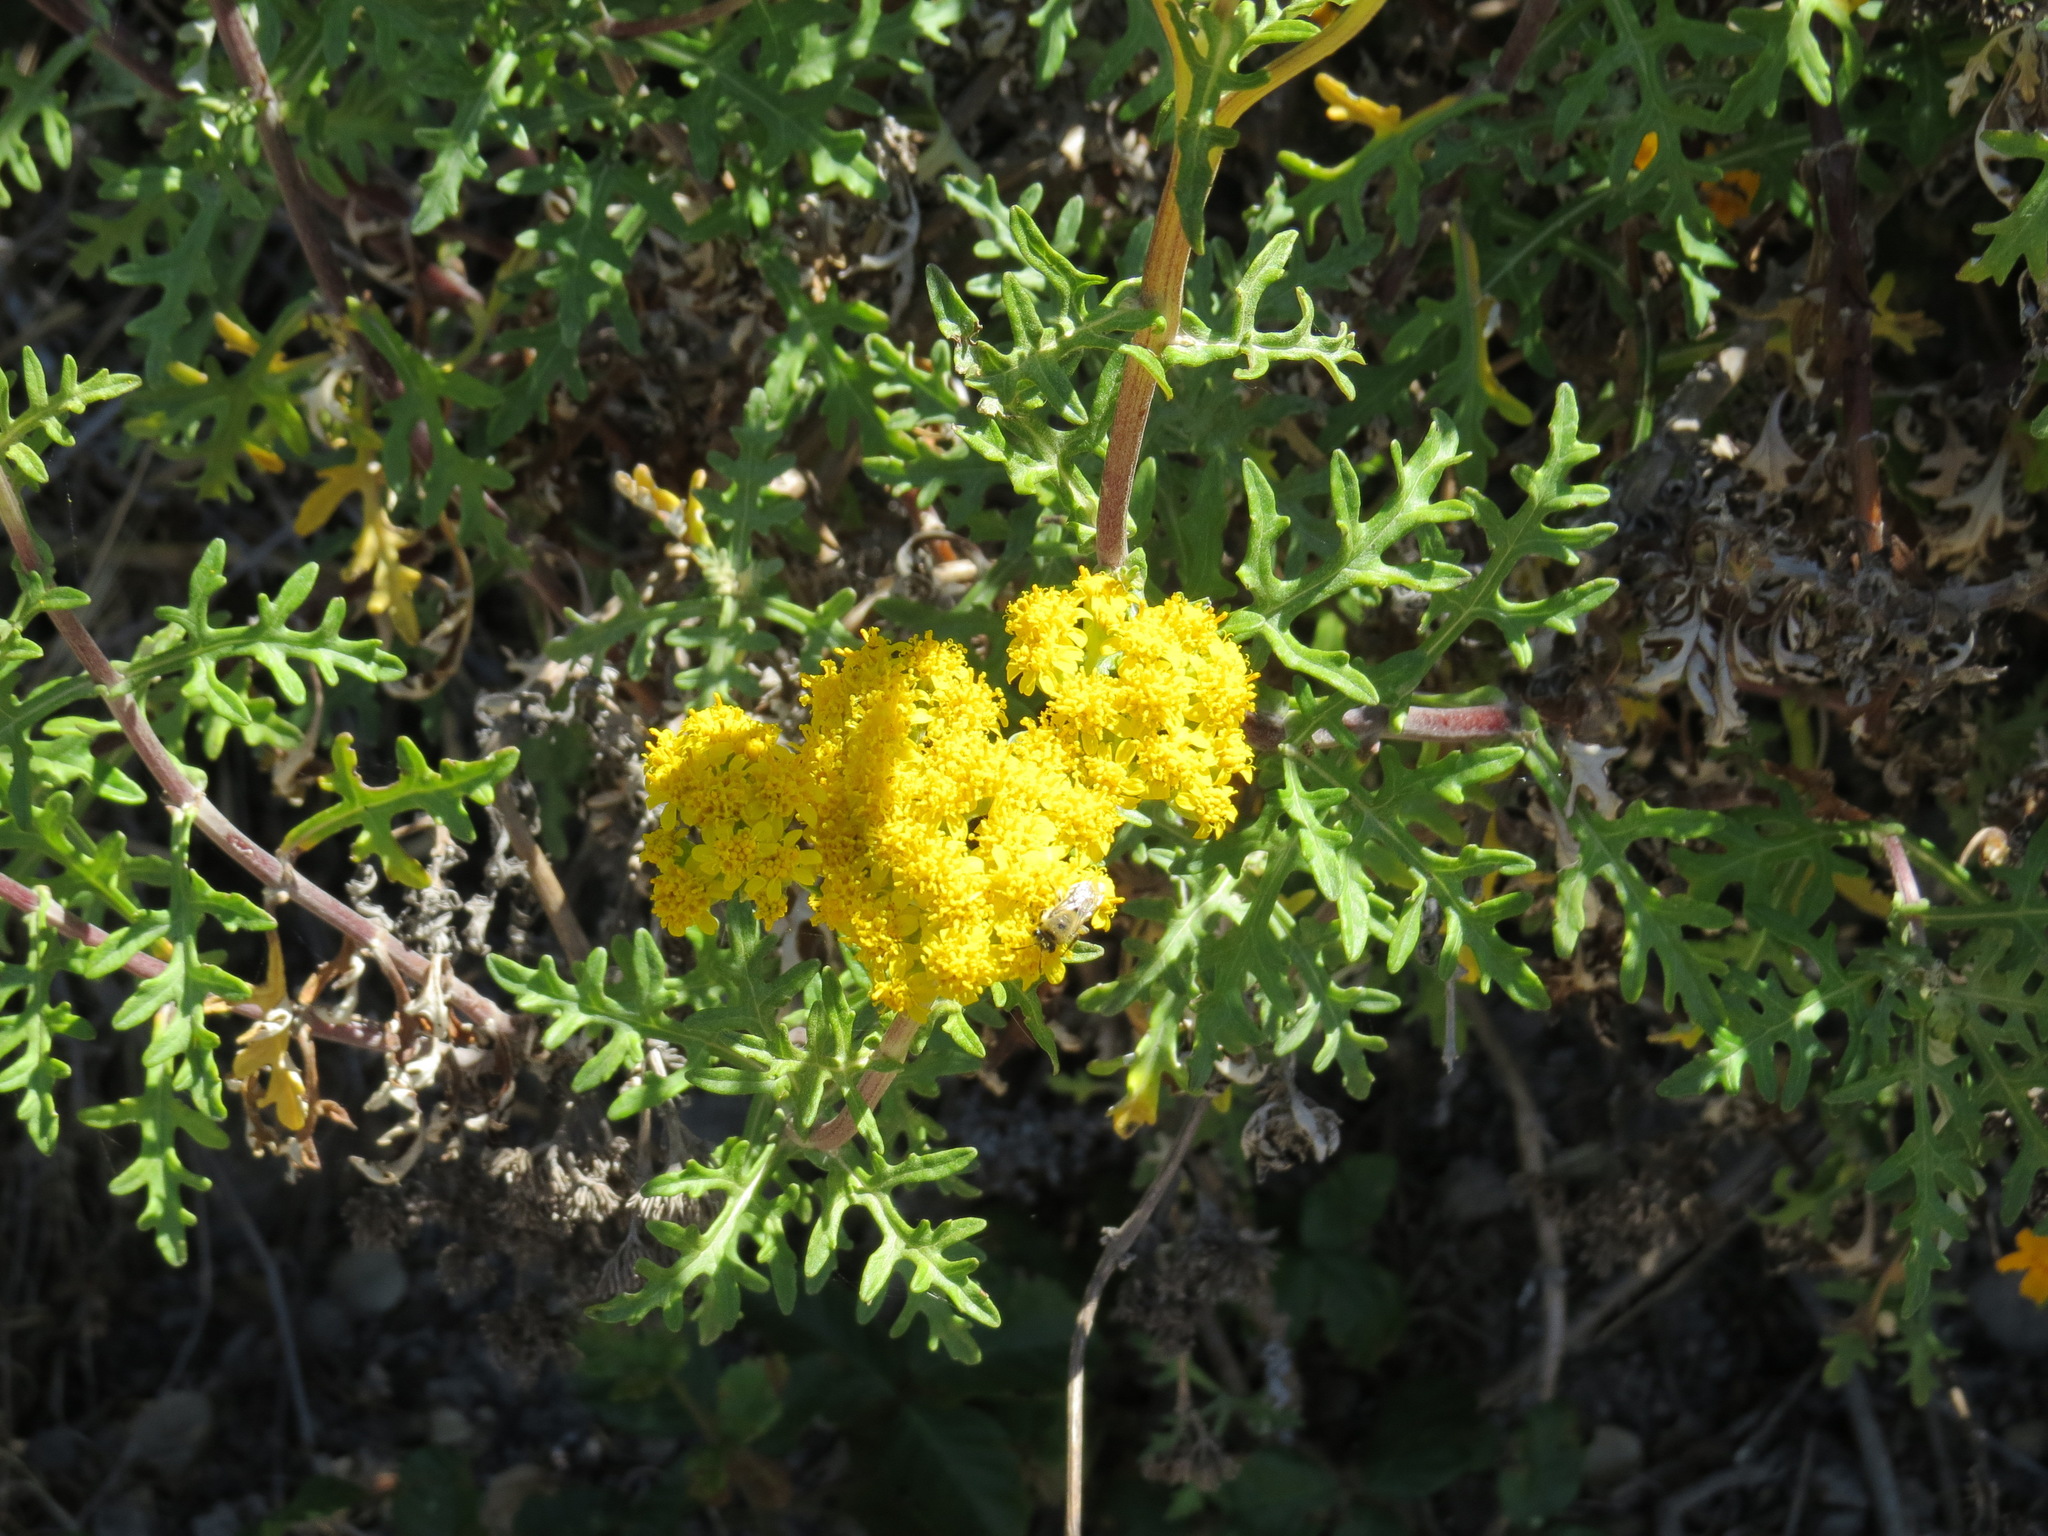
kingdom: Plantae
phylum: Tracheophyta
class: Magnoliopsida
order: Asterales
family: Asteraceae
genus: Eriophyllum
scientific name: Eriophyllum staechadifolium
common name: Lizardtail
